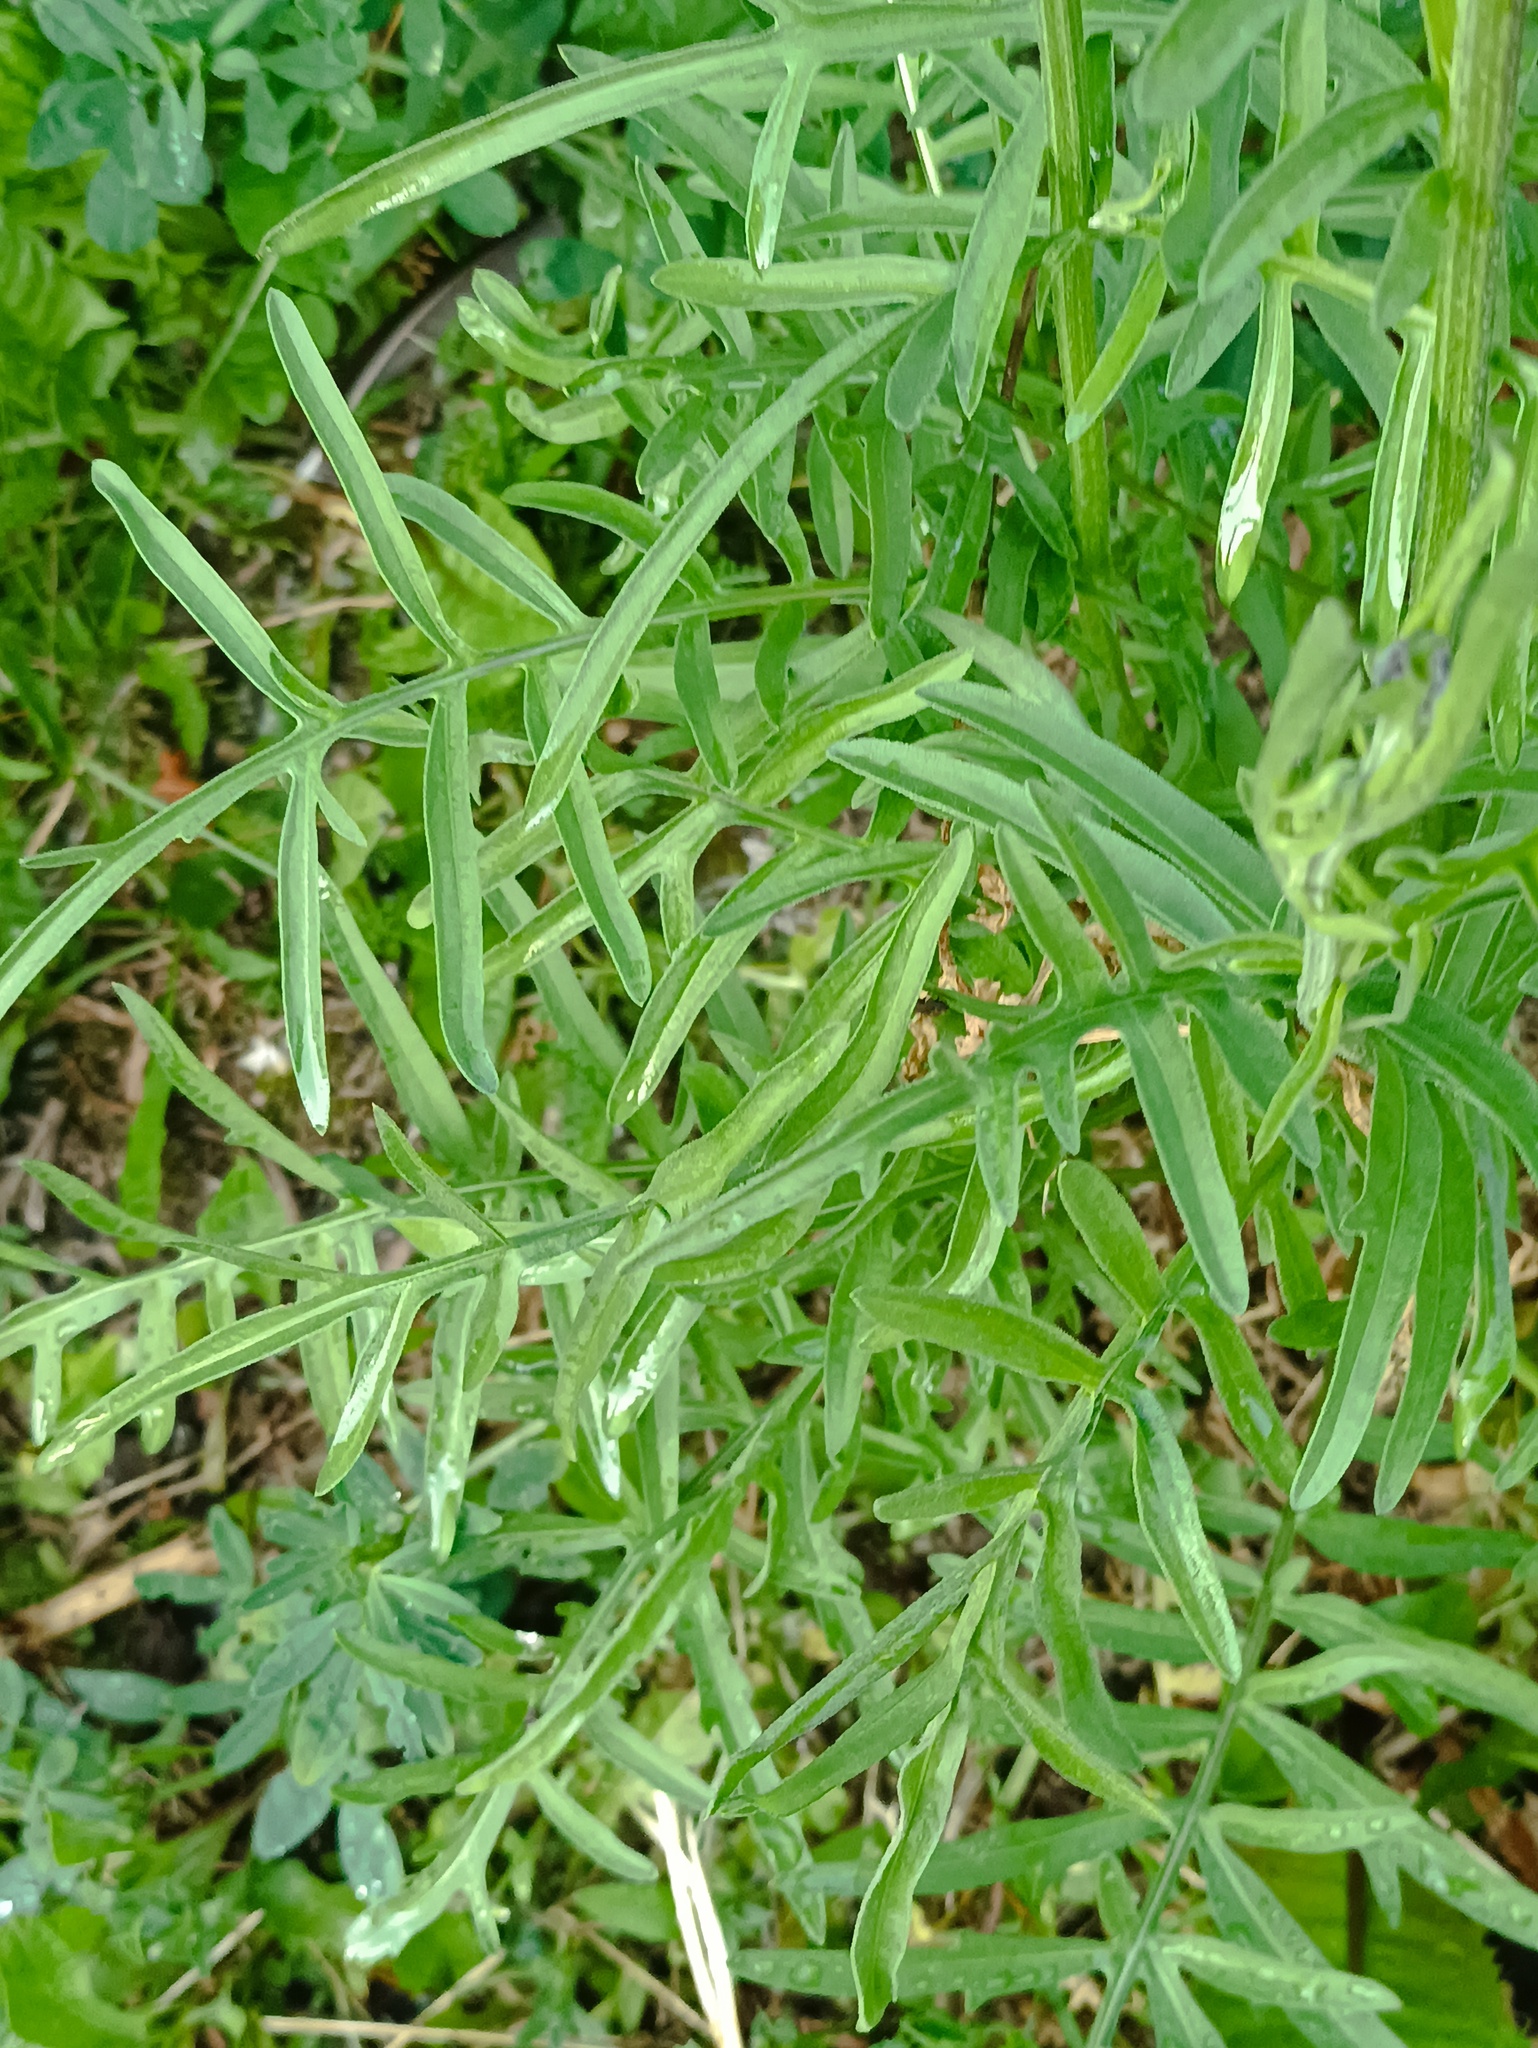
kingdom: Plantae
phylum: Tracheophyta
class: Magnoliopsida
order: Asterales
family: Asteraceae
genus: Centaurea
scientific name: Centaurea scabiosa
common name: Greater knapweed
